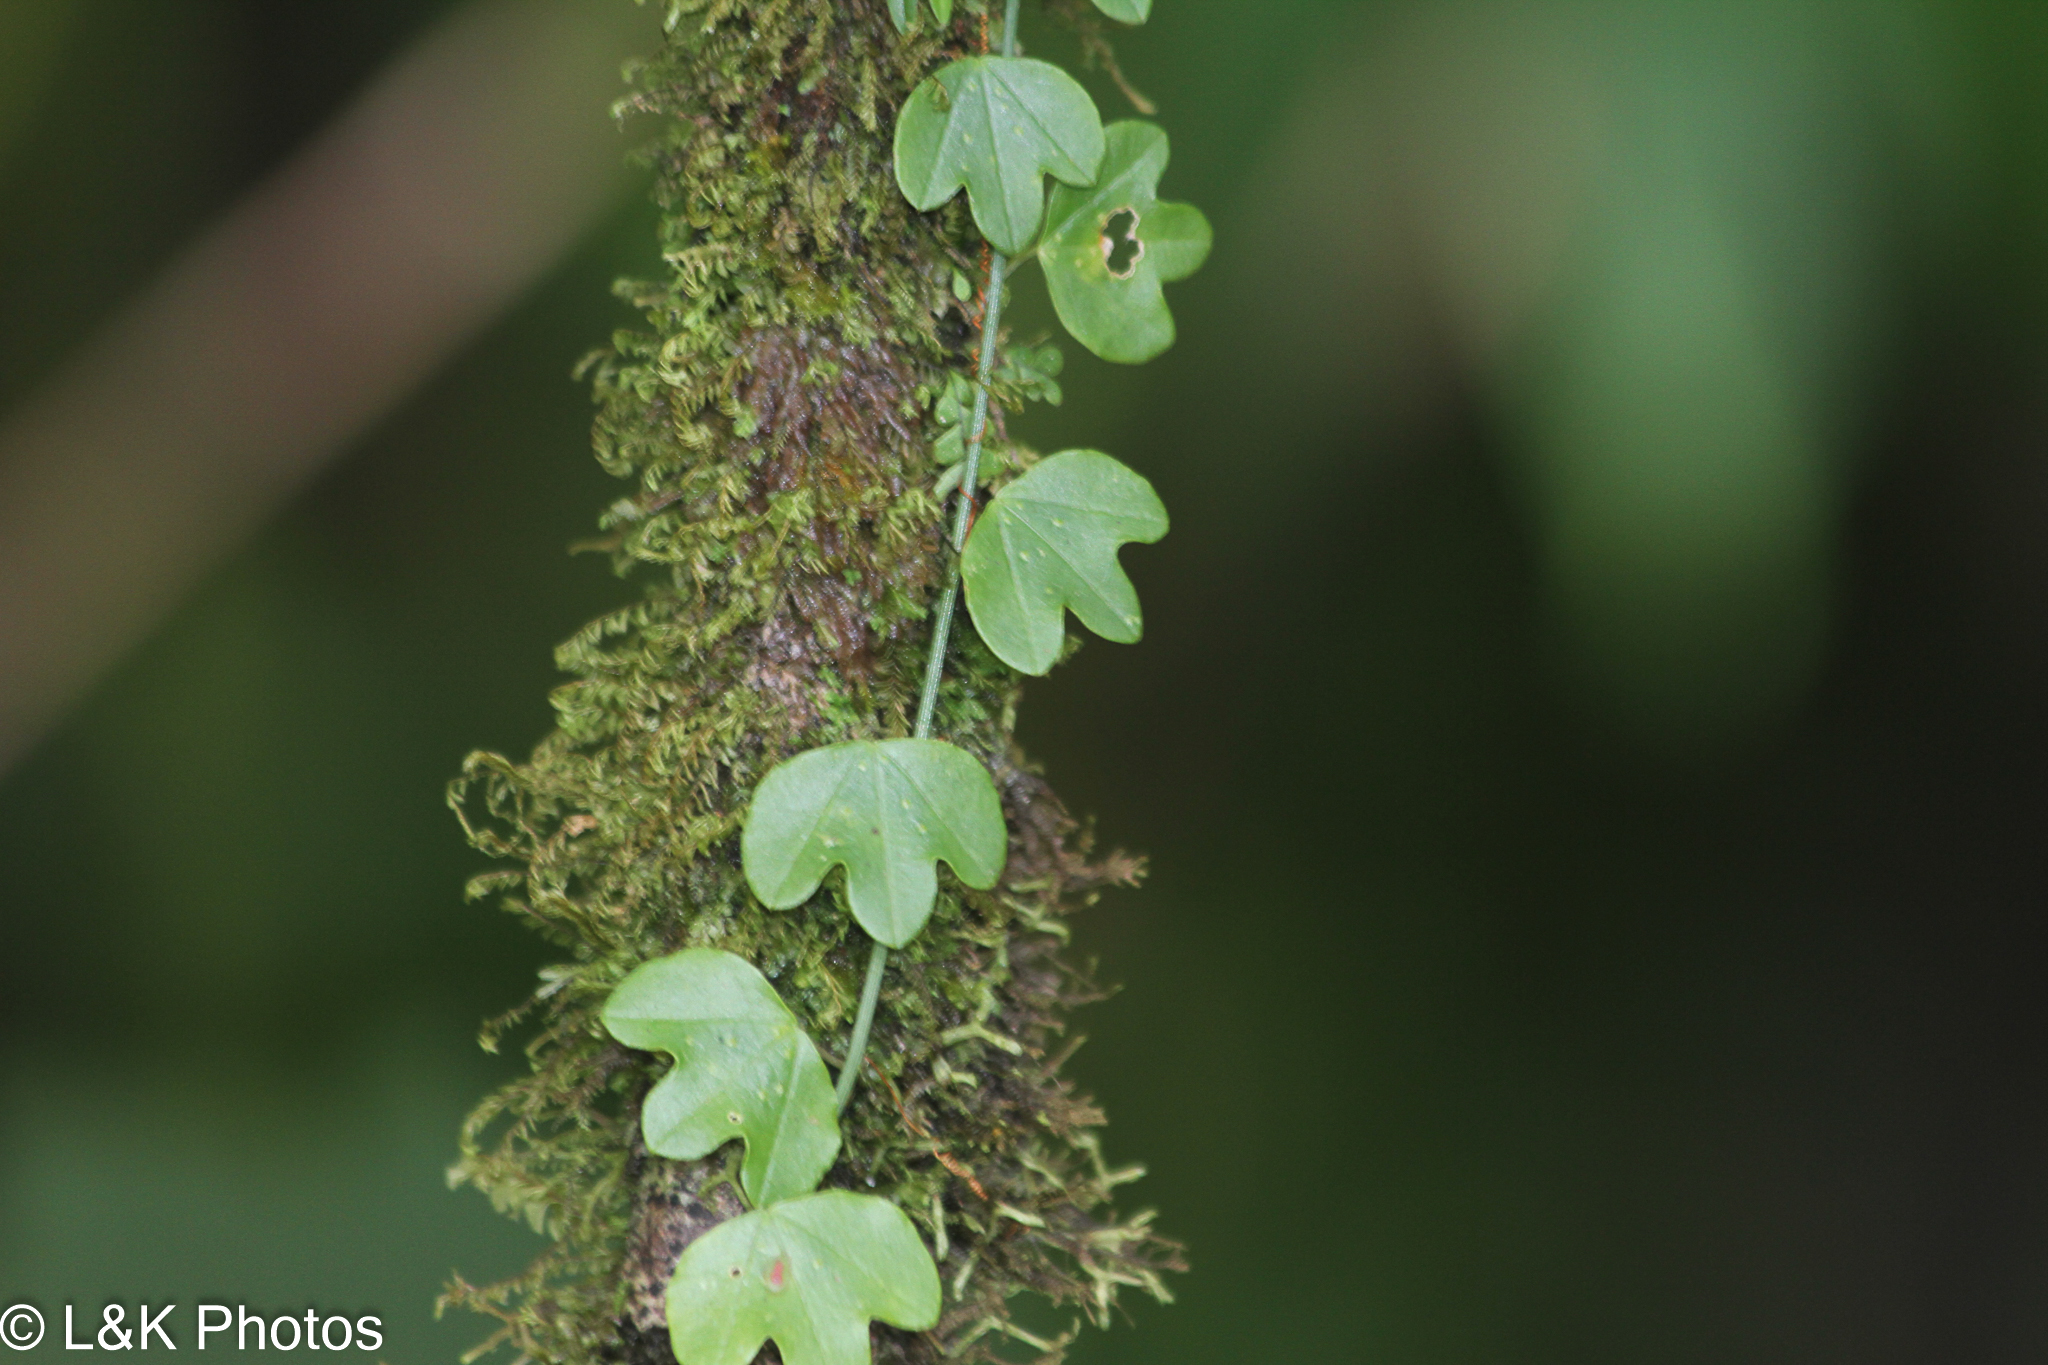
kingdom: Plantae
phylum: Tracheophyta
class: Magnoliopsida
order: Malpighiales
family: Passifloraceae
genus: Passiflora
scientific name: Passiflora lancearia
